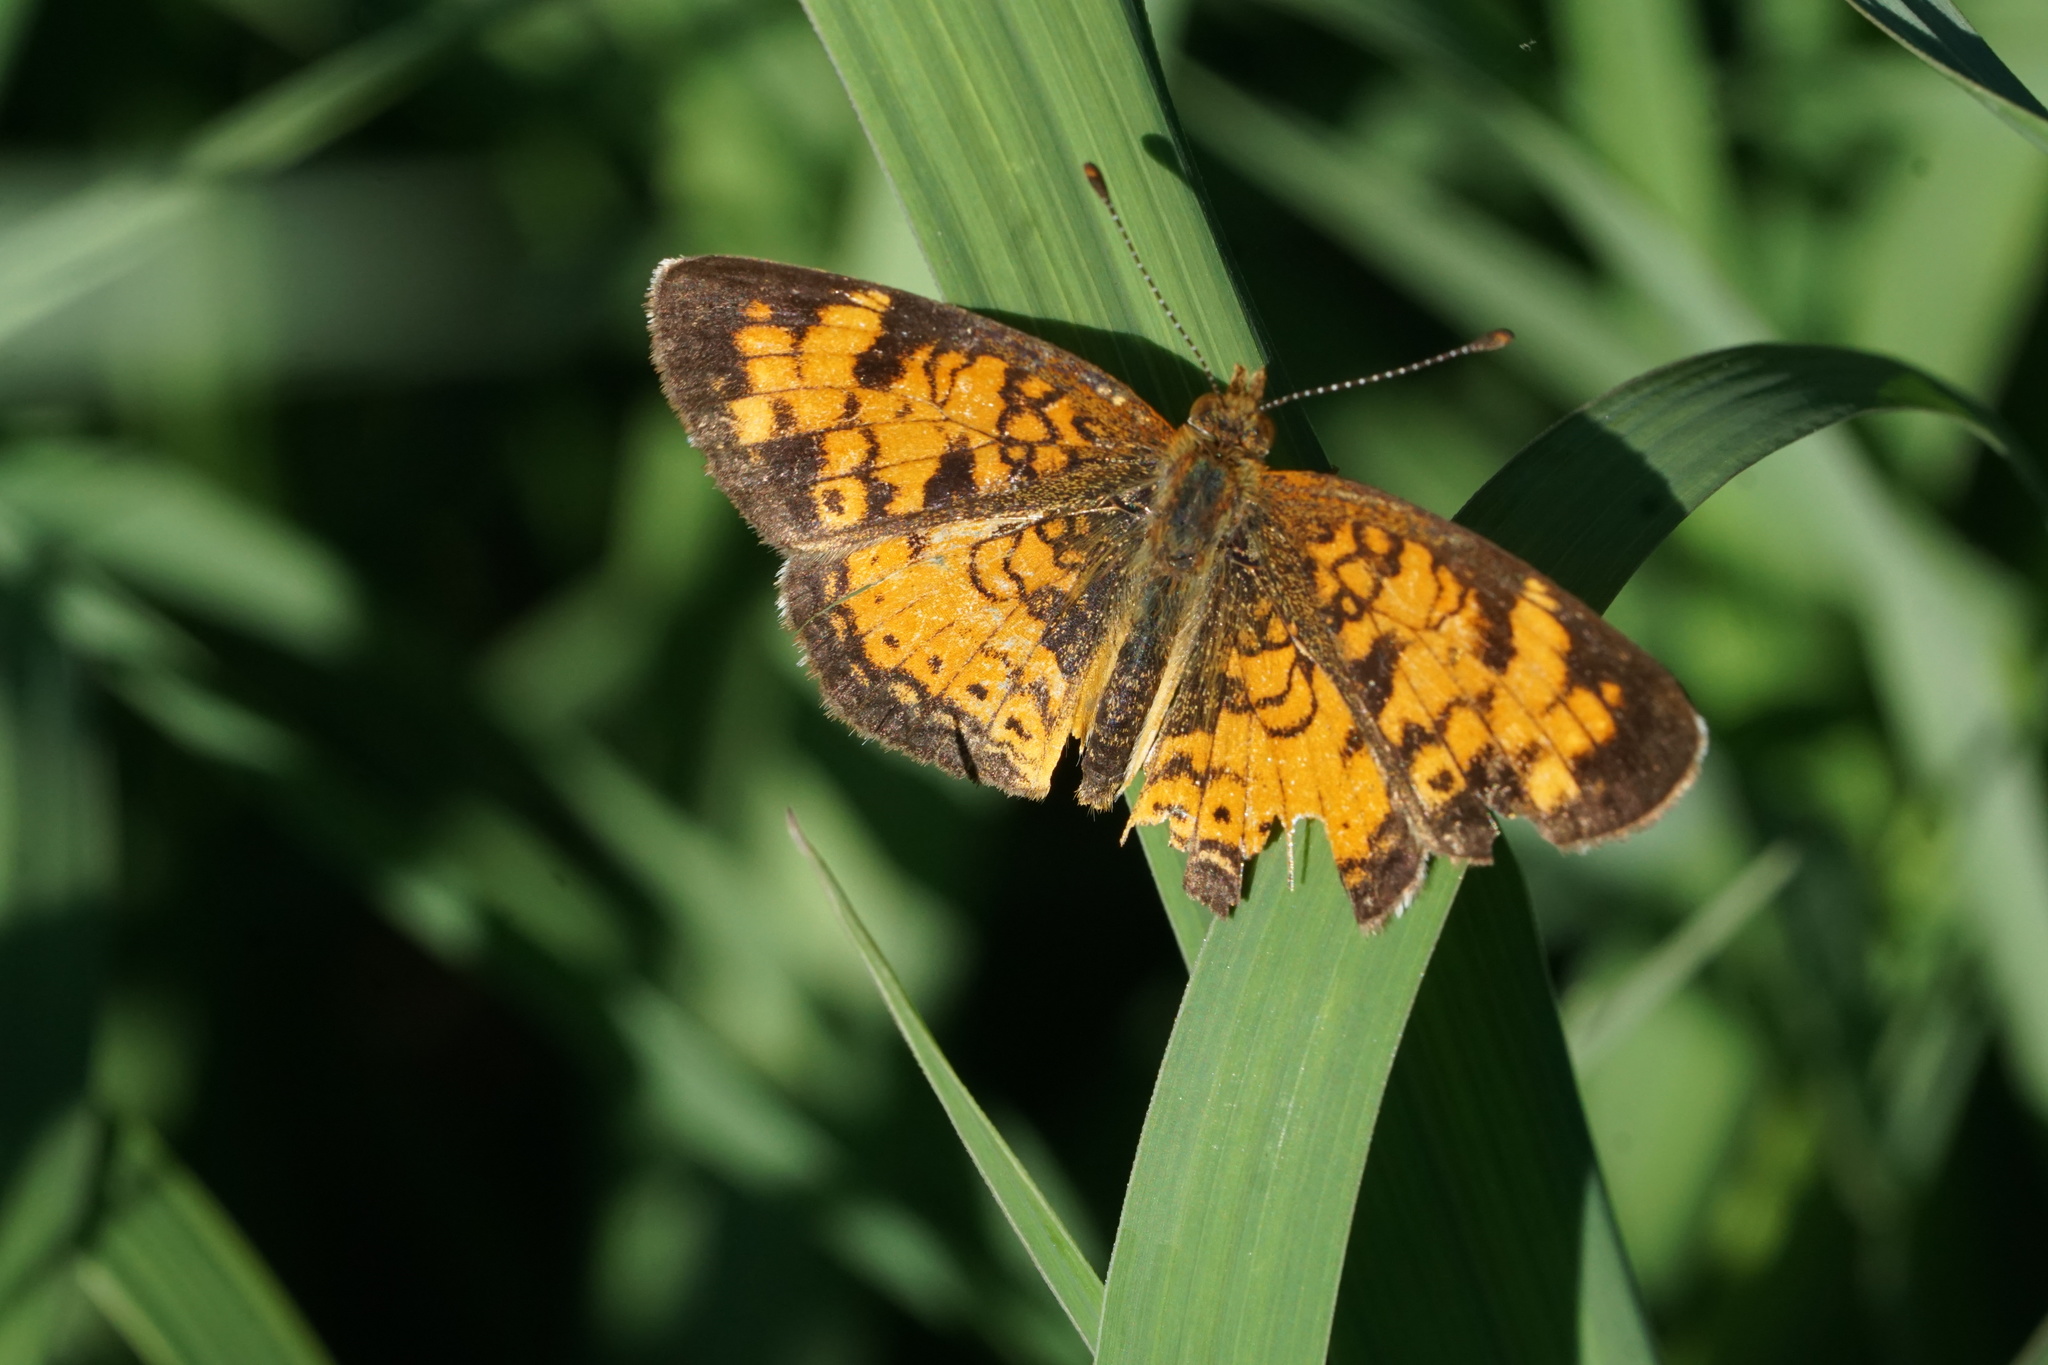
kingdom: Animalia
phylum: Arthropoda
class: Insecta
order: Lepidoptera
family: Nymphalidae
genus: Phyciodes
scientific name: Phyciodes tharos
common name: Pearl crescent
